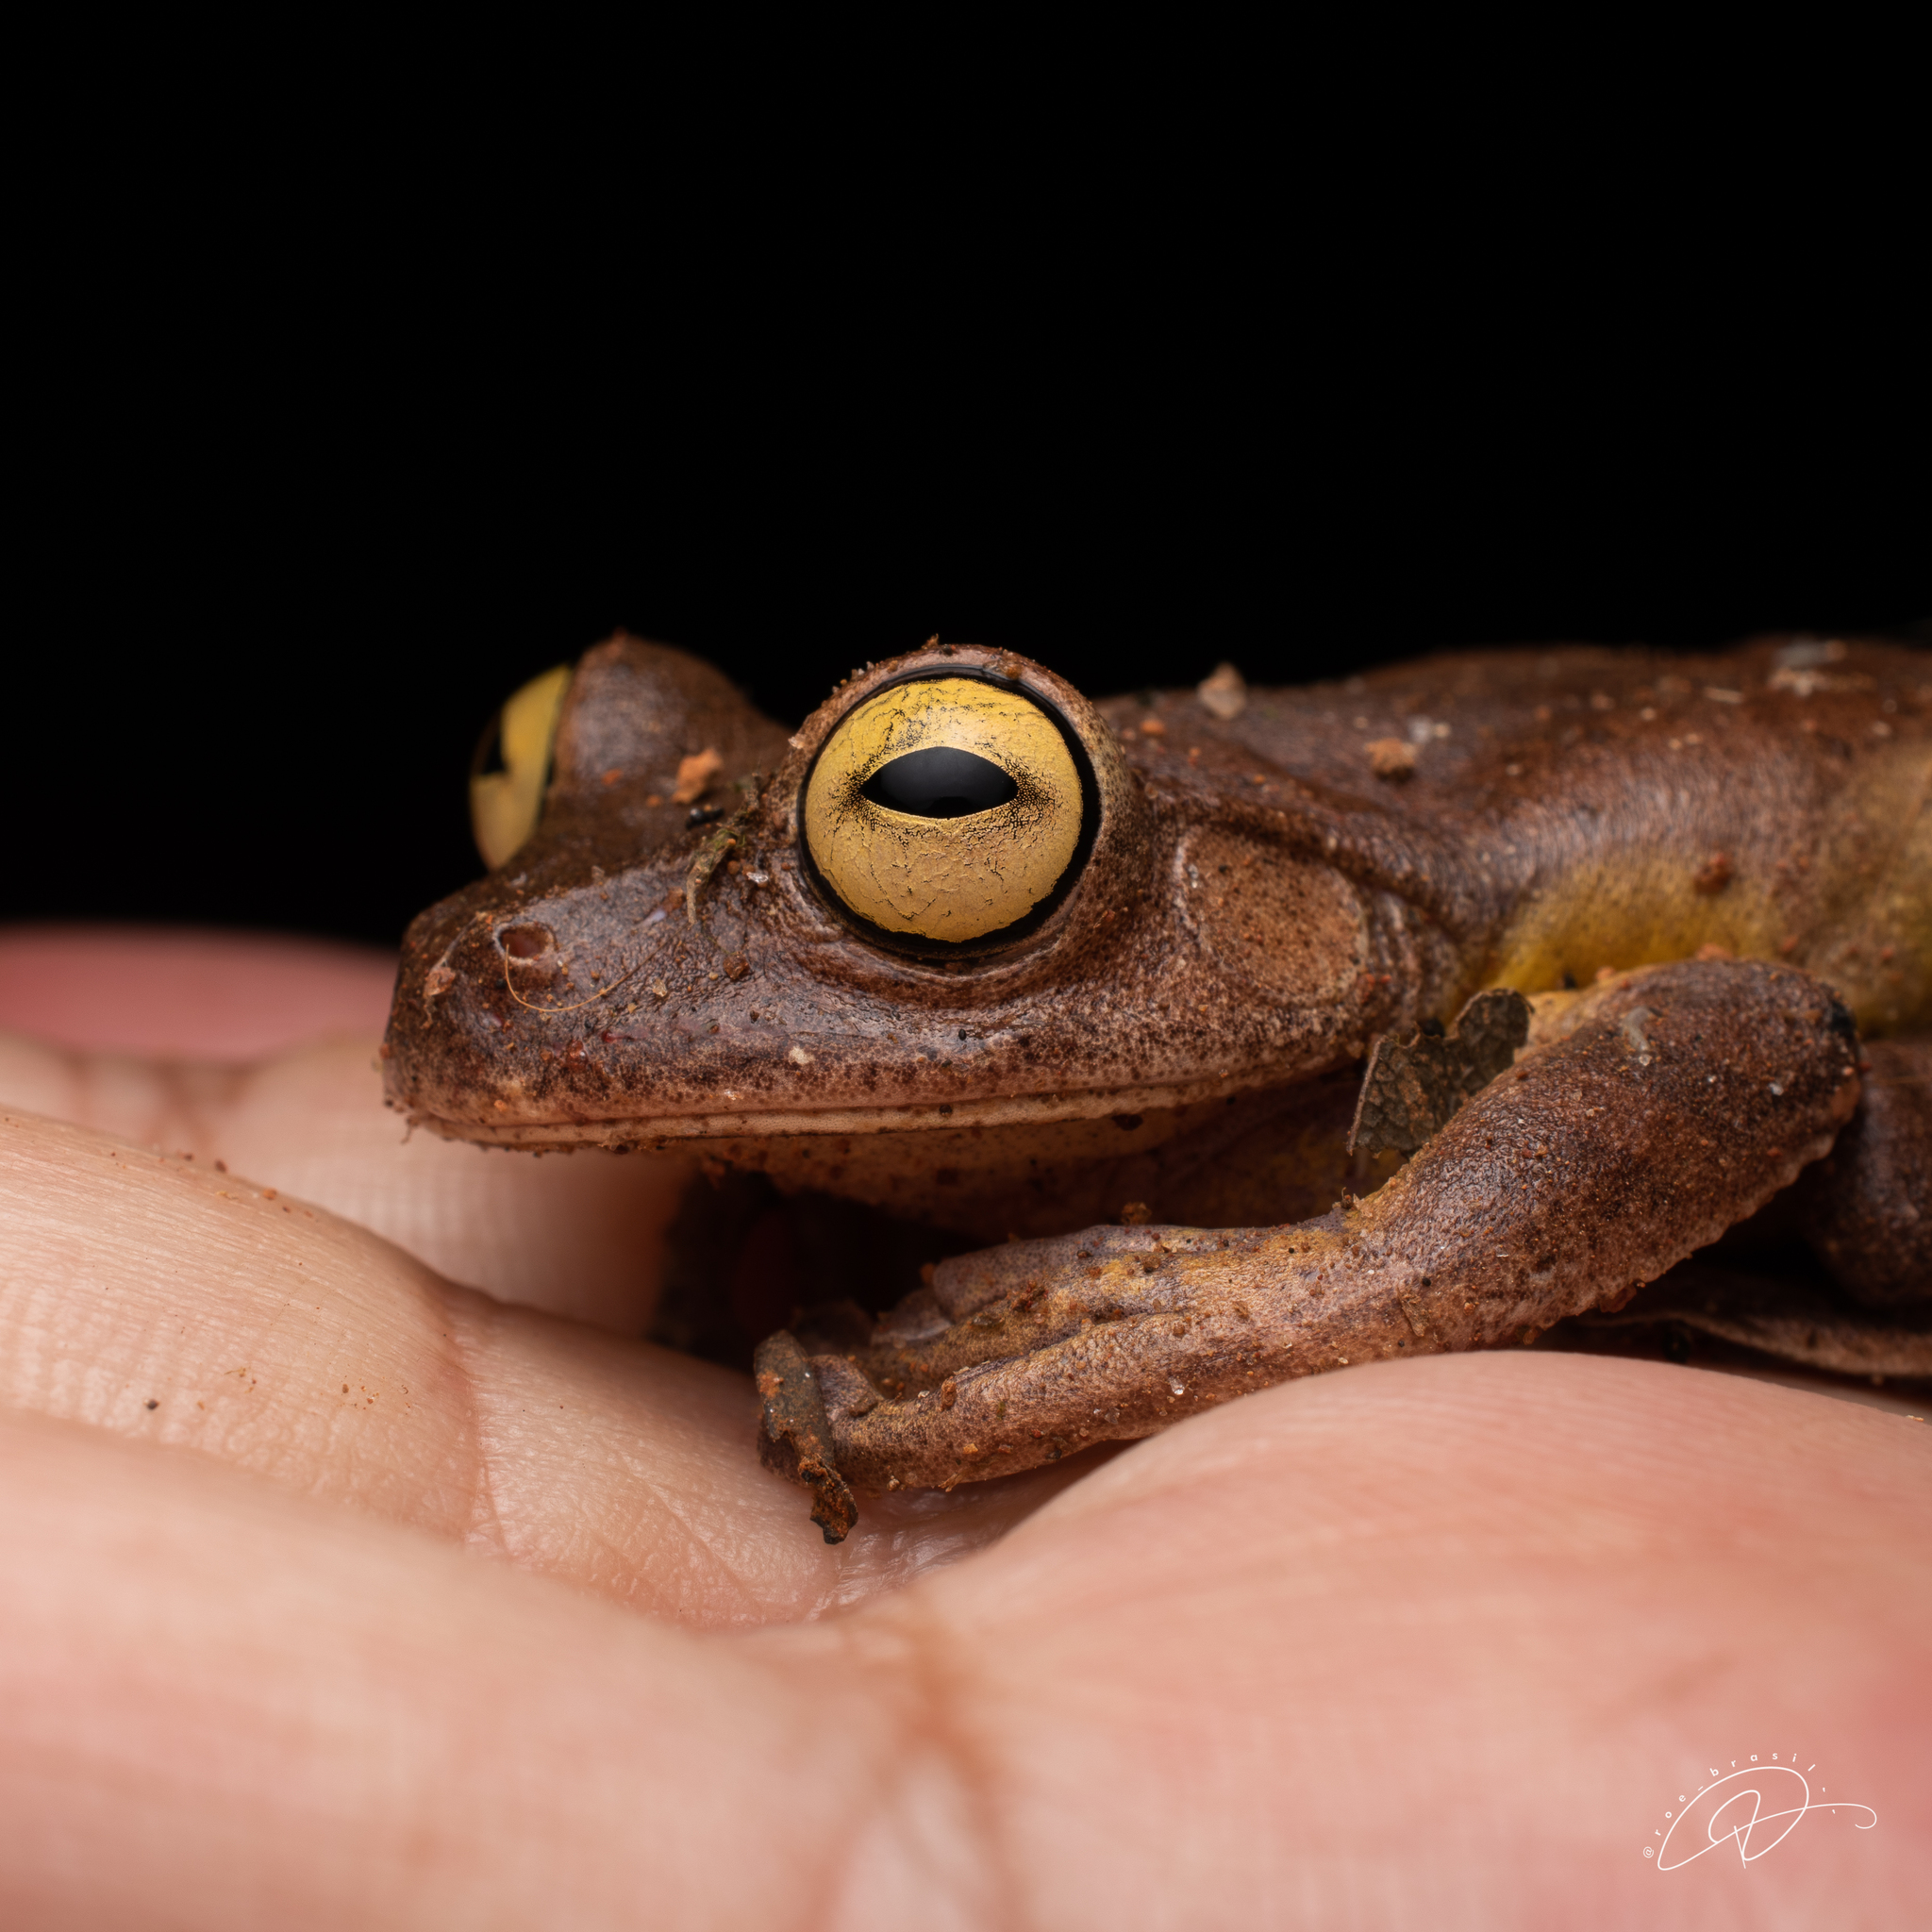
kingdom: Animalia
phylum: Chordata
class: Amphibia
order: Anura
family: Hylidae
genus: Bokermannohyla
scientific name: Bokermannohyla luctuosa
